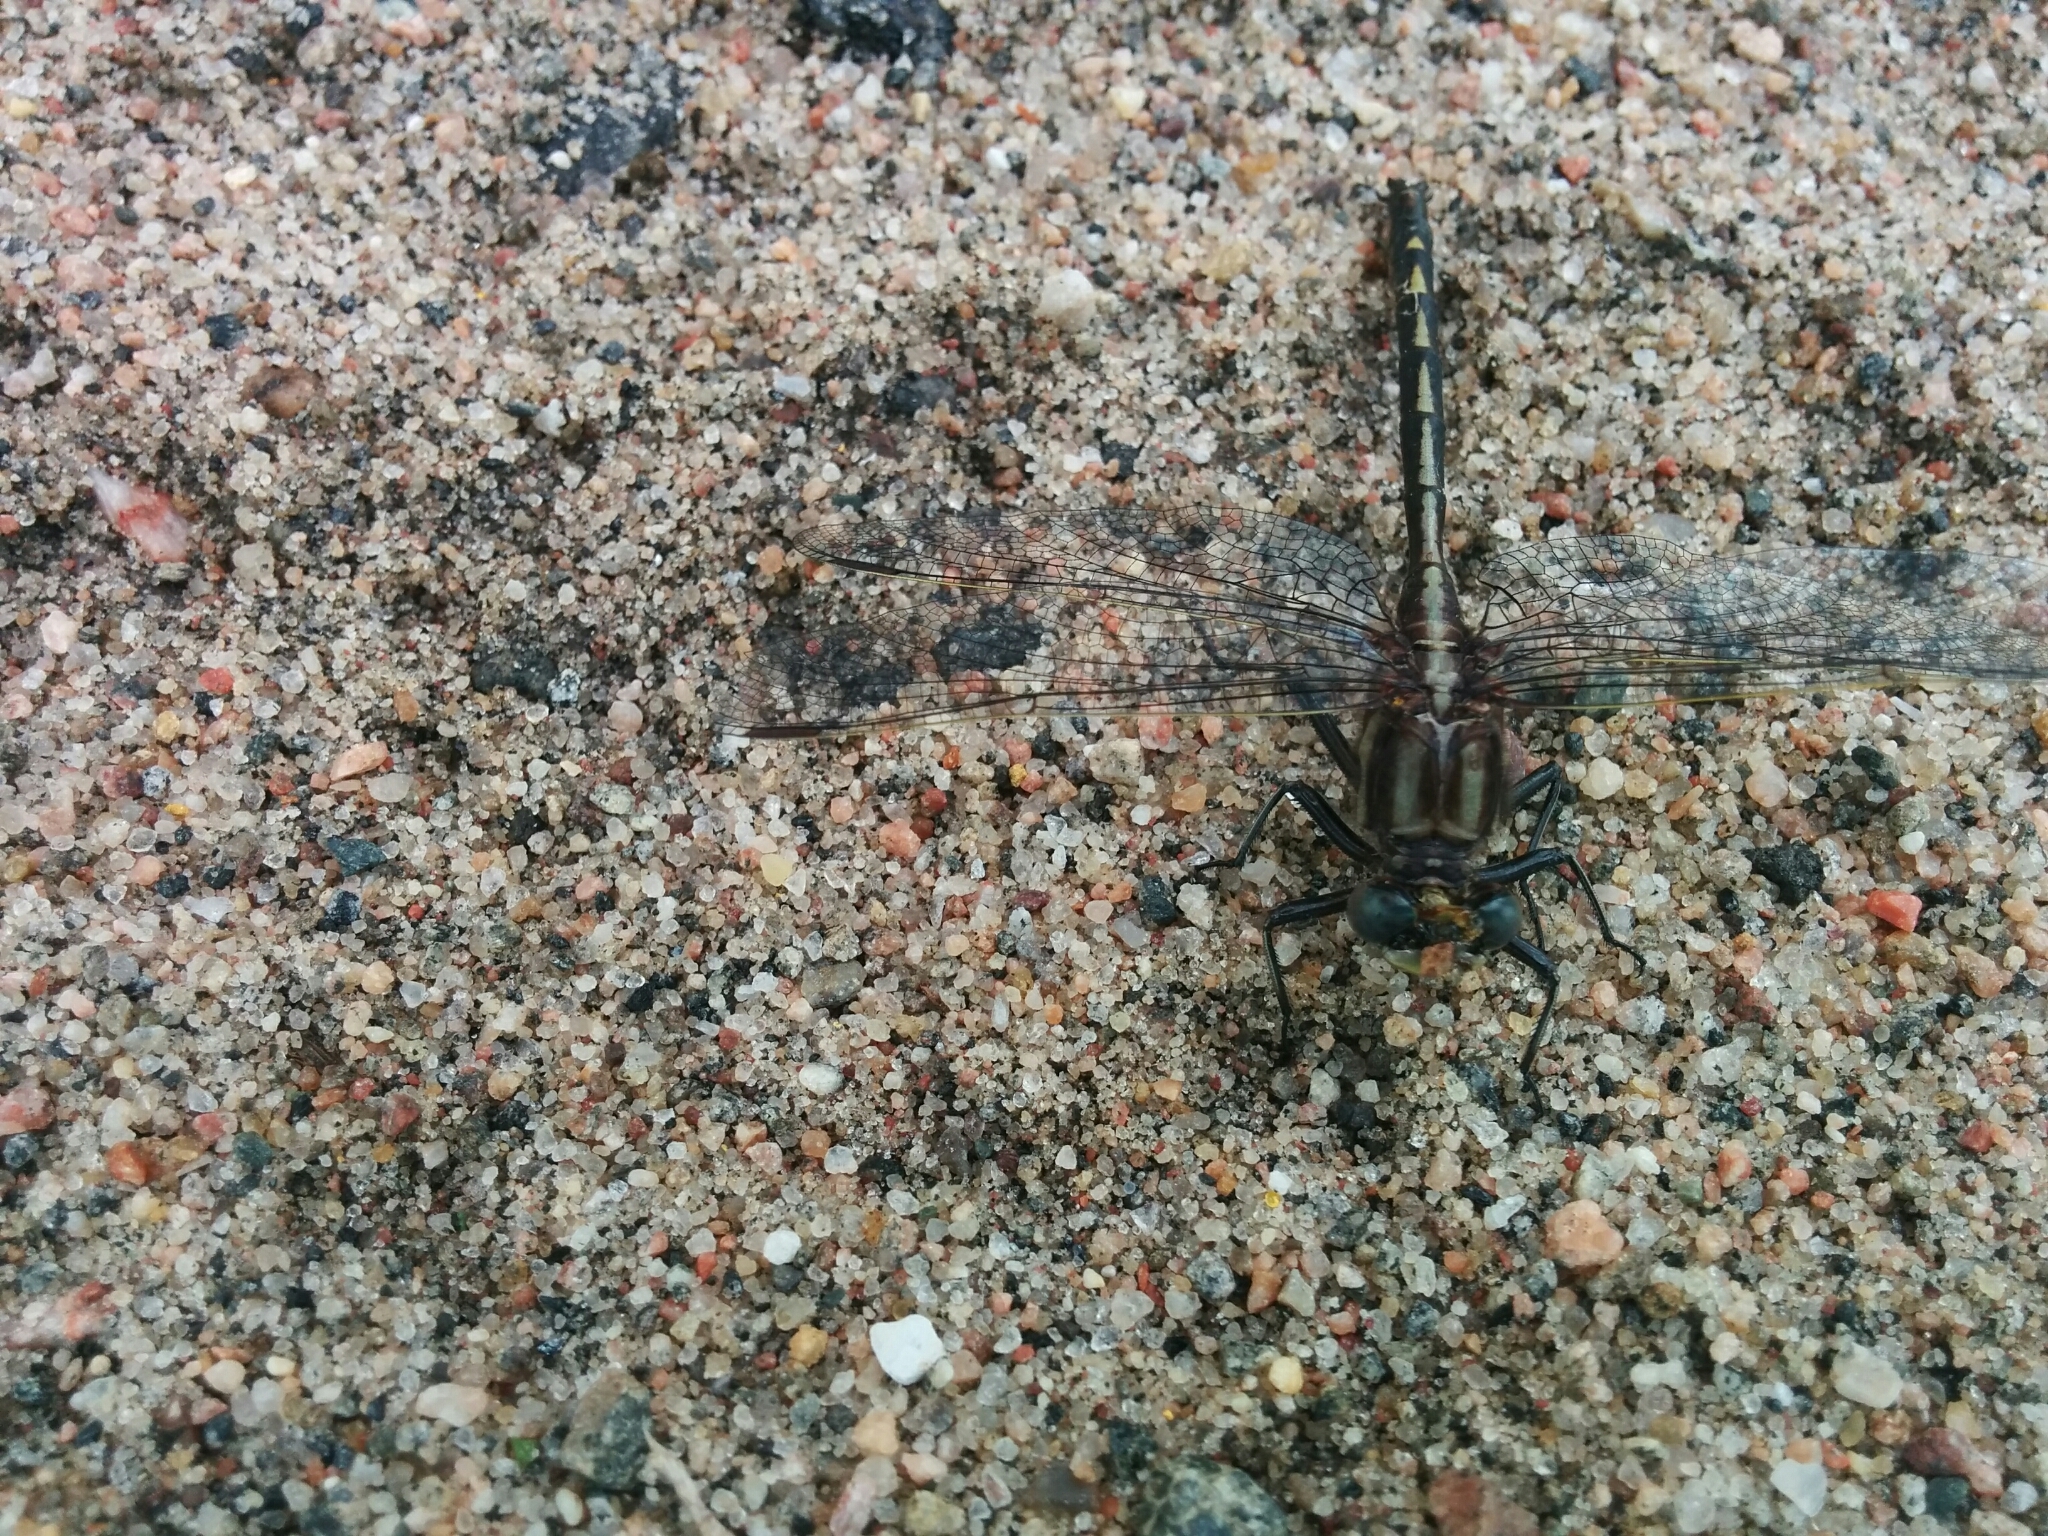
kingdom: Animalia
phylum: Arthropoda
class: Insecta
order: Odonata
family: Gomphidae
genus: Phanogomphus
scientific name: Phanogomphus exilis
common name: Lancet clubtail
